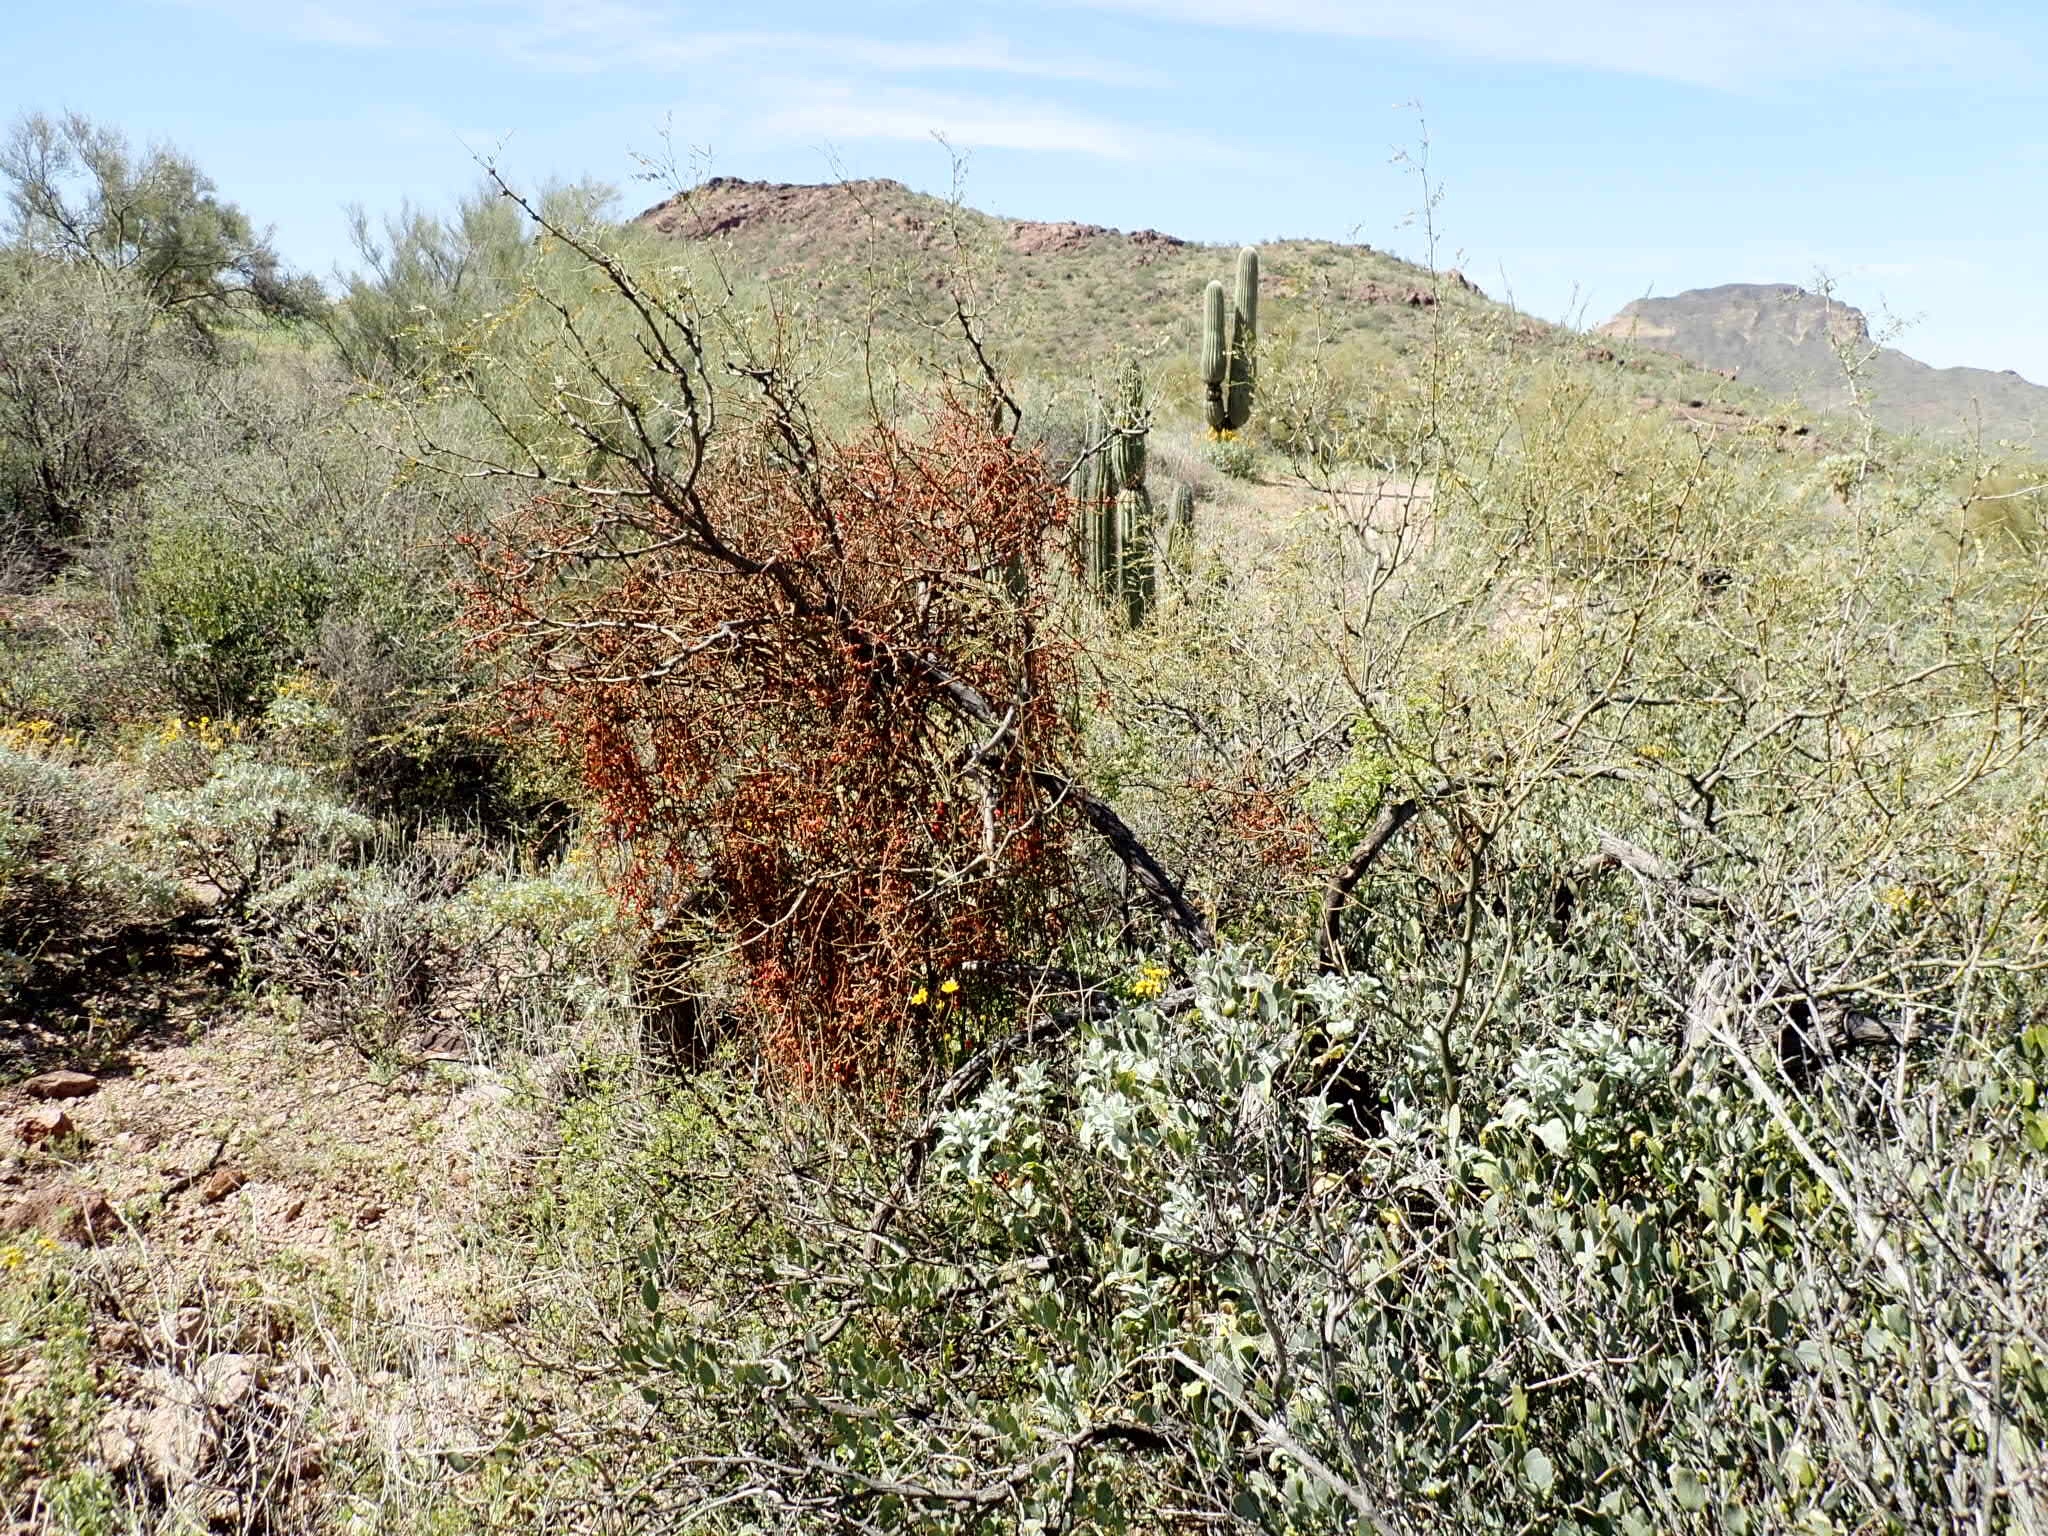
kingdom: Plantae
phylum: Tracheophyta
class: Magnoliopsida
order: Santalales
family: Viscaceae
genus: Phoradendron
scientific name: Phoradendron californicum
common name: Acacia mistletoe
